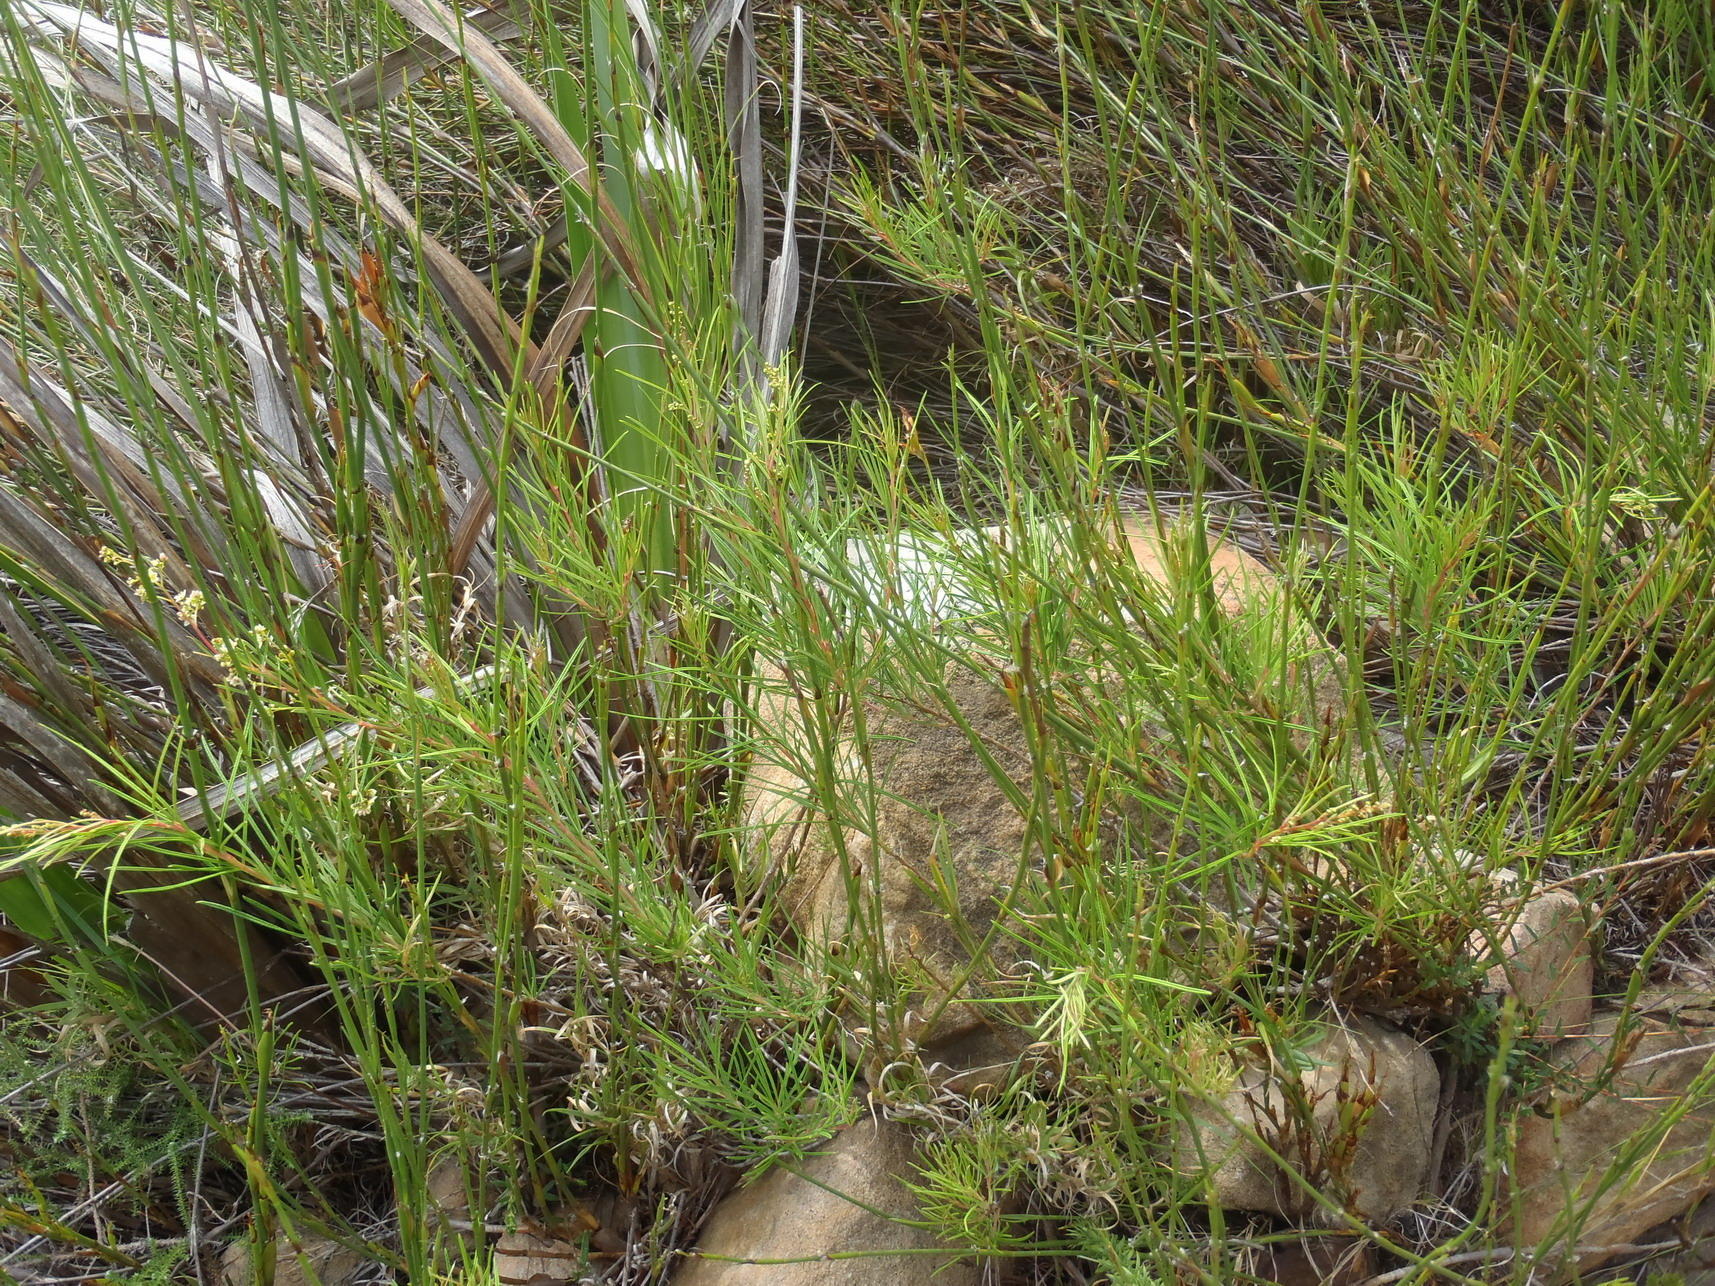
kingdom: Plantae
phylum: Tracheophyta
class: Magnoliopsida
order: Sapindales
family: Anacardiaceae
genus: Searsia
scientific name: Searsia rosmarinifolia
